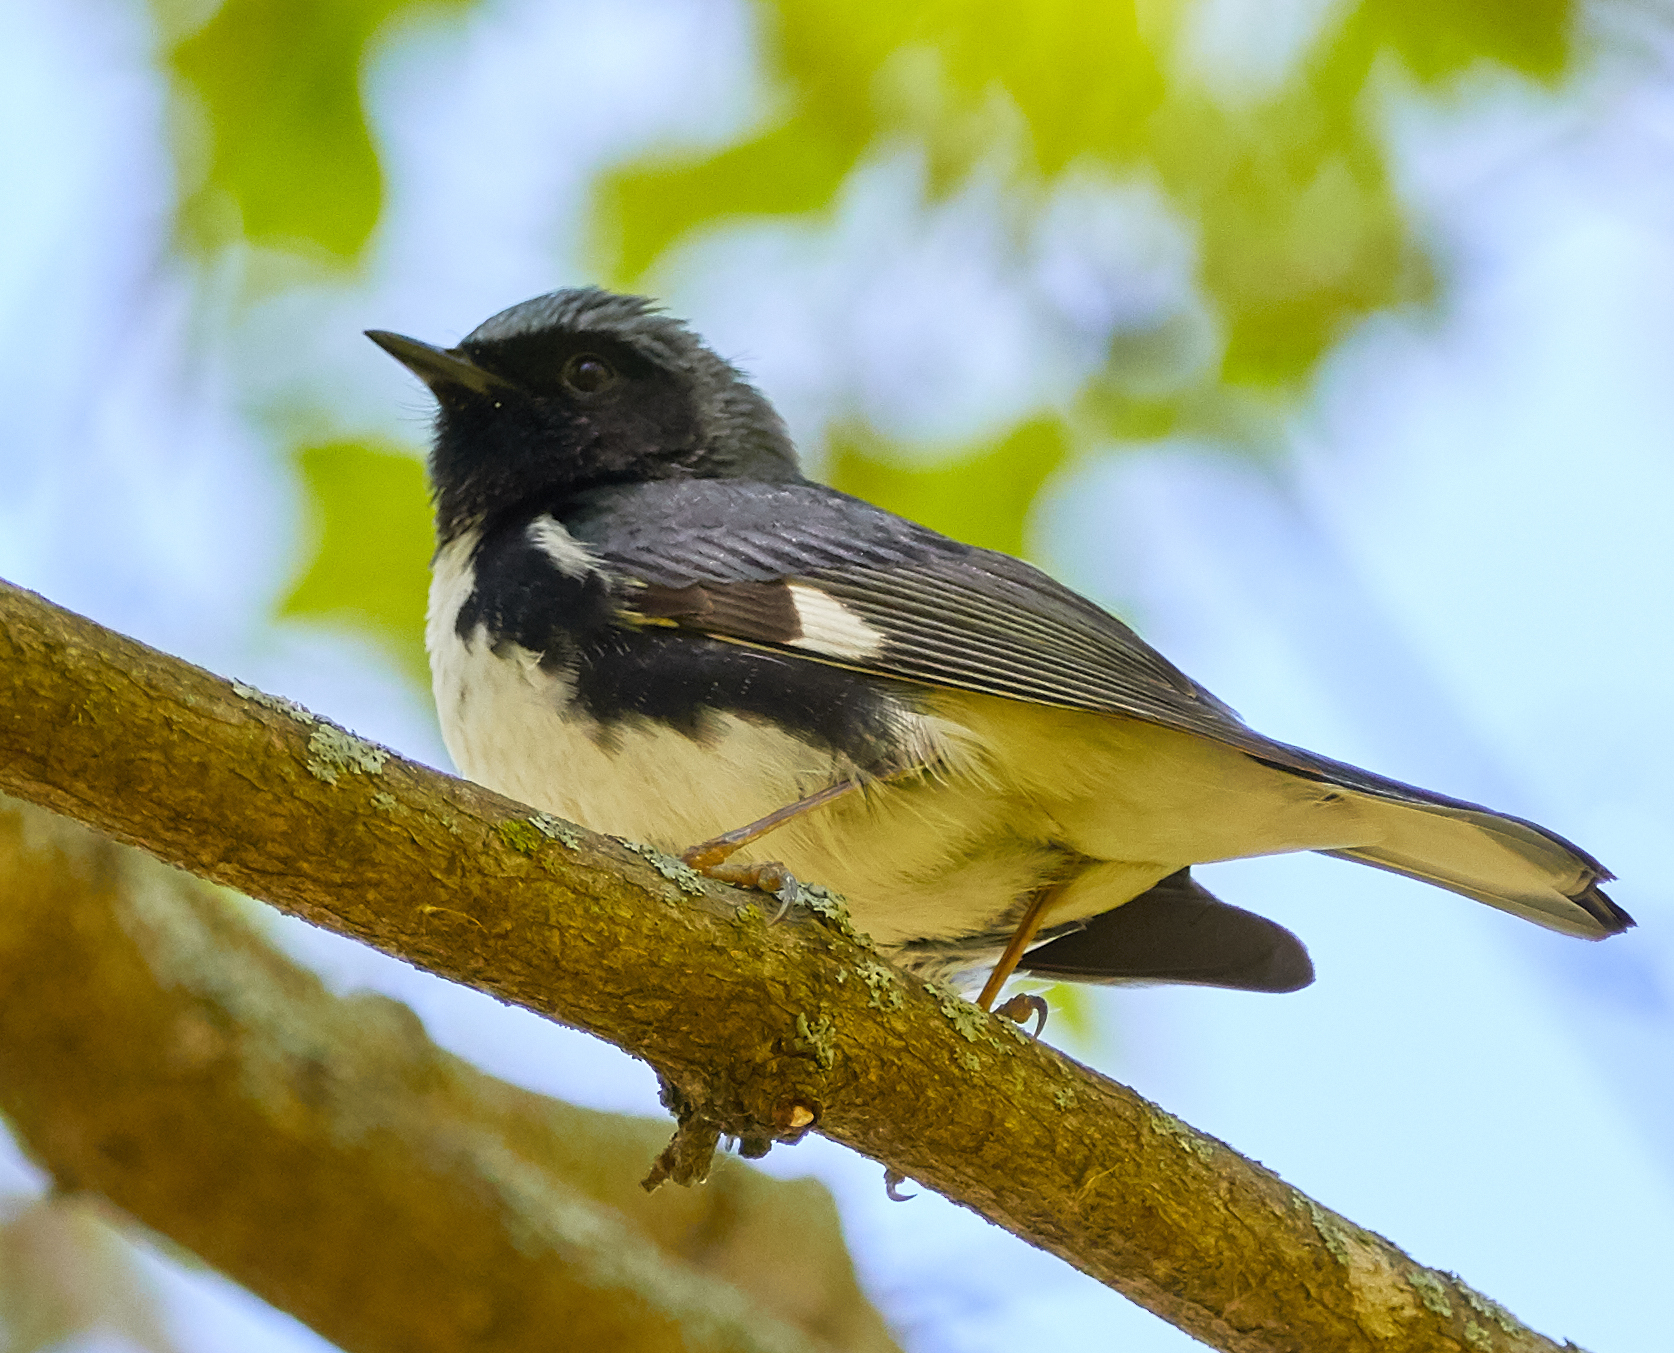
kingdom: Animalia
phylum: Chordata
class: Aves
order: Passeriformes
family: Parulidae
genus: Setophaga
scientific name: Setophaga caerulescens
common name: Black-throated blue warbler
